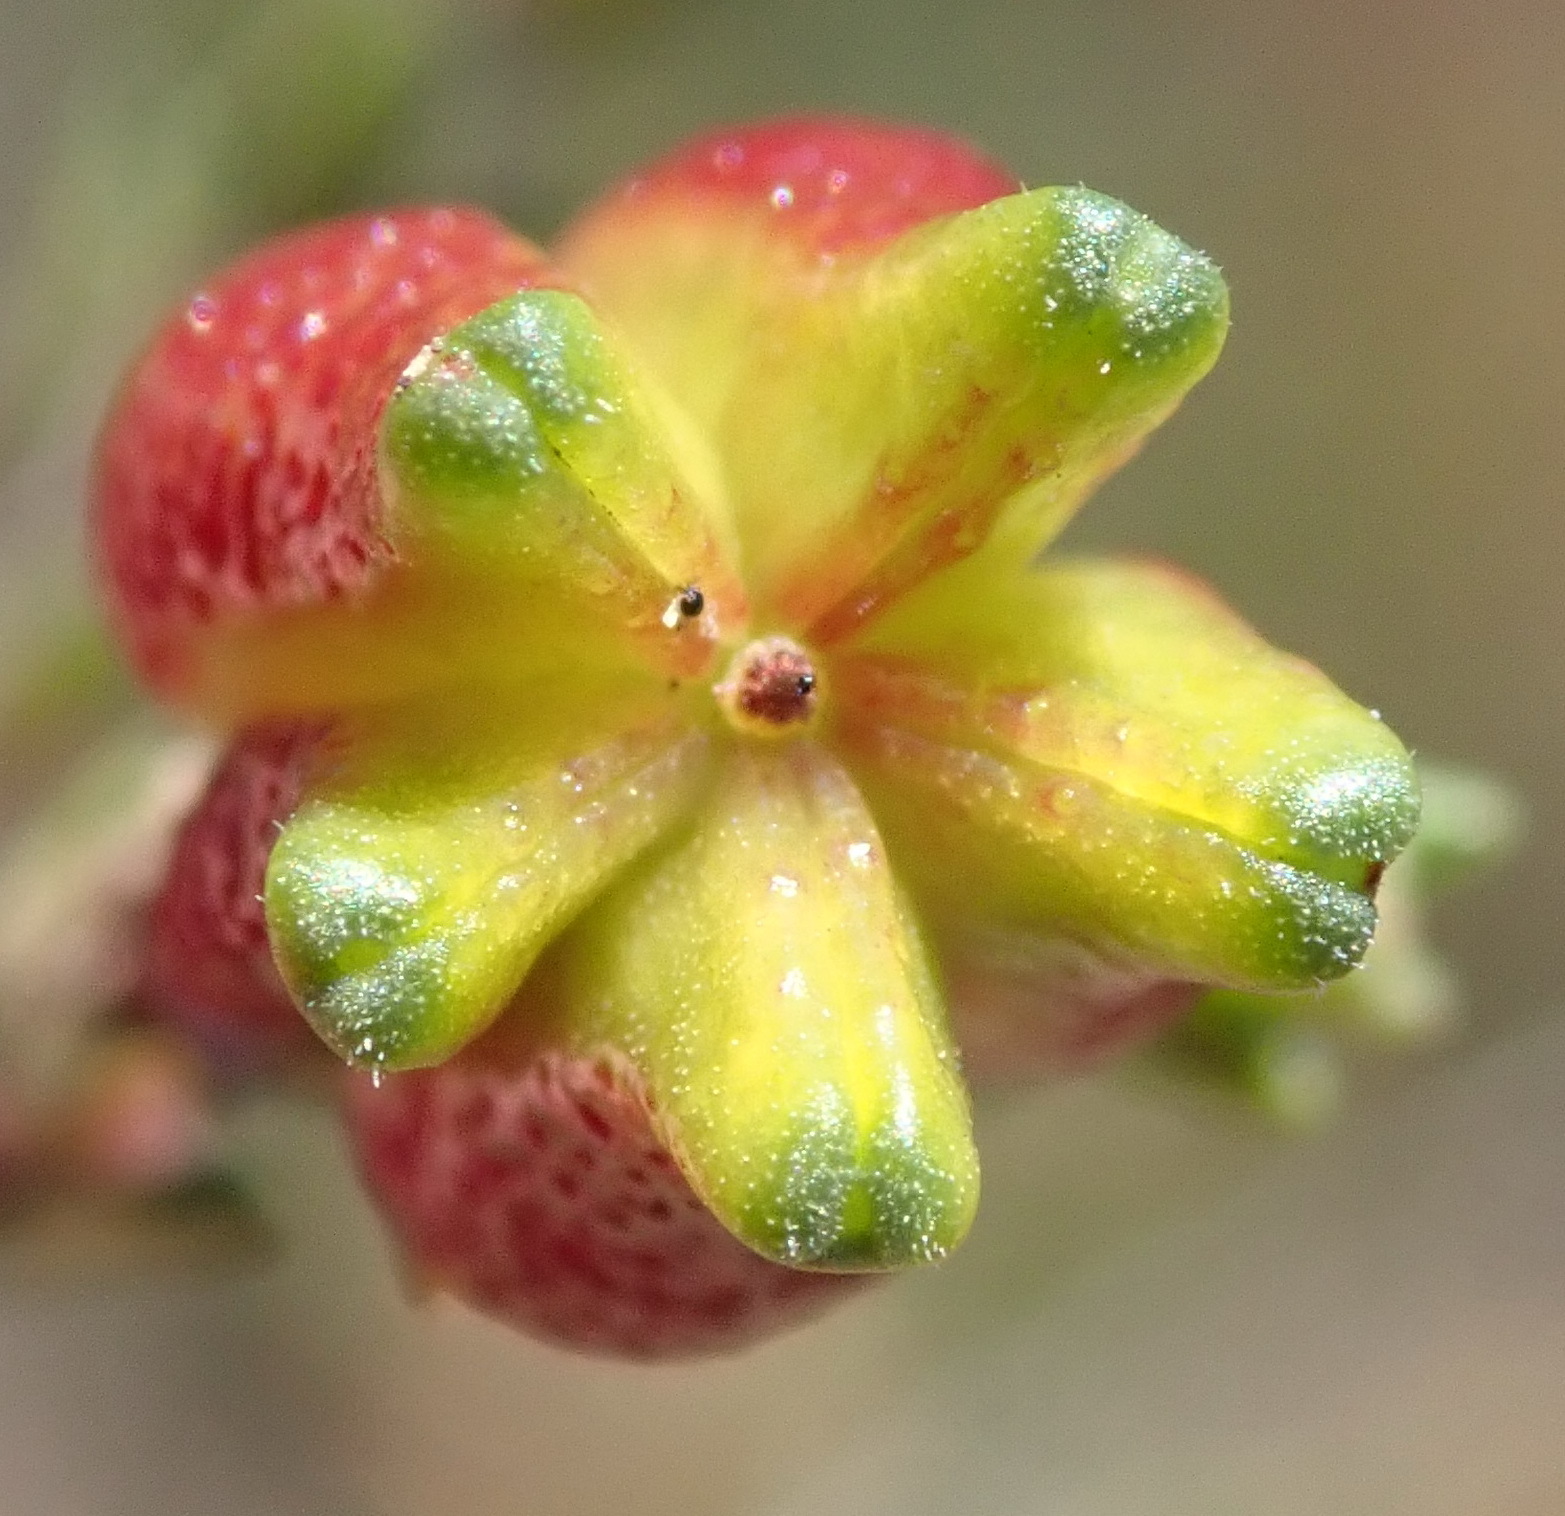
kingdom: Plantae
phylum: Tracheophyta
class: Magnoliopsida
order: Sapindales
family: Rutaceae
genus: Diosma
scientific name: Diosma prama
